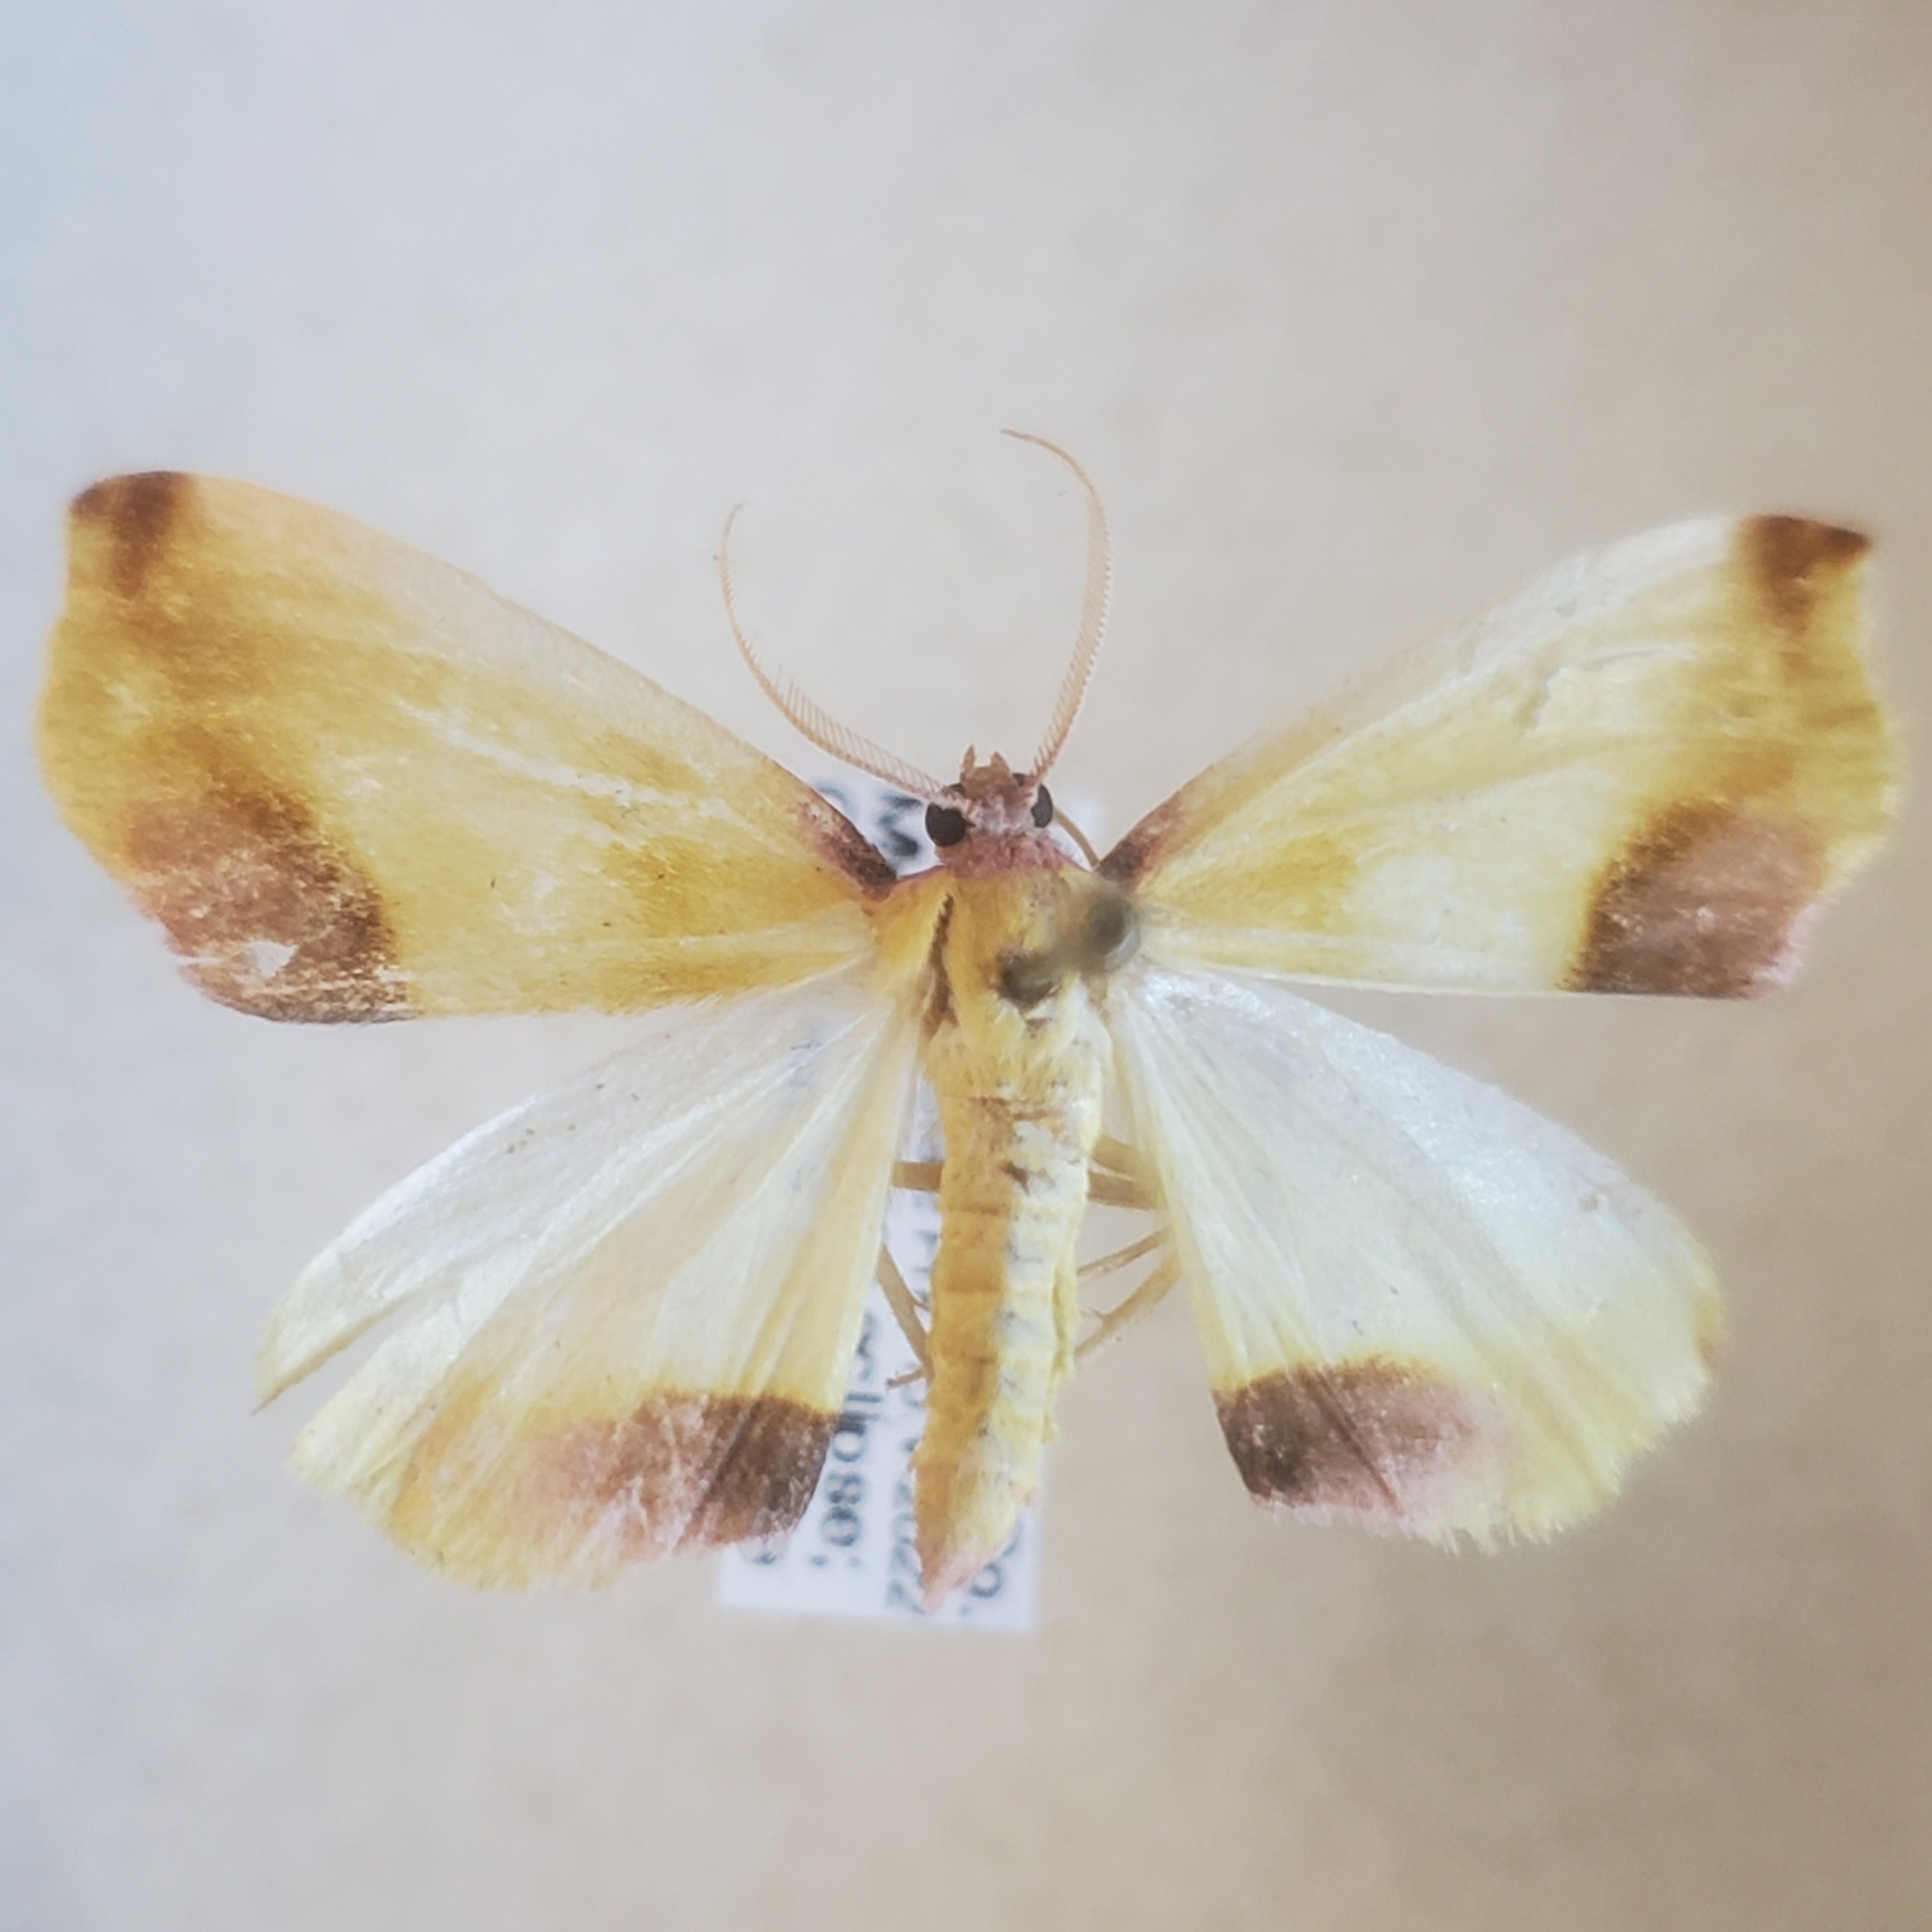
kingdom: Animalia
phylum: Arthropoda
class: Insecta
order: Lepidoptera
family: Geometridae
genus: Plagodis
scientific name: Plagodis serinaria
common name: Lemon plagodis
